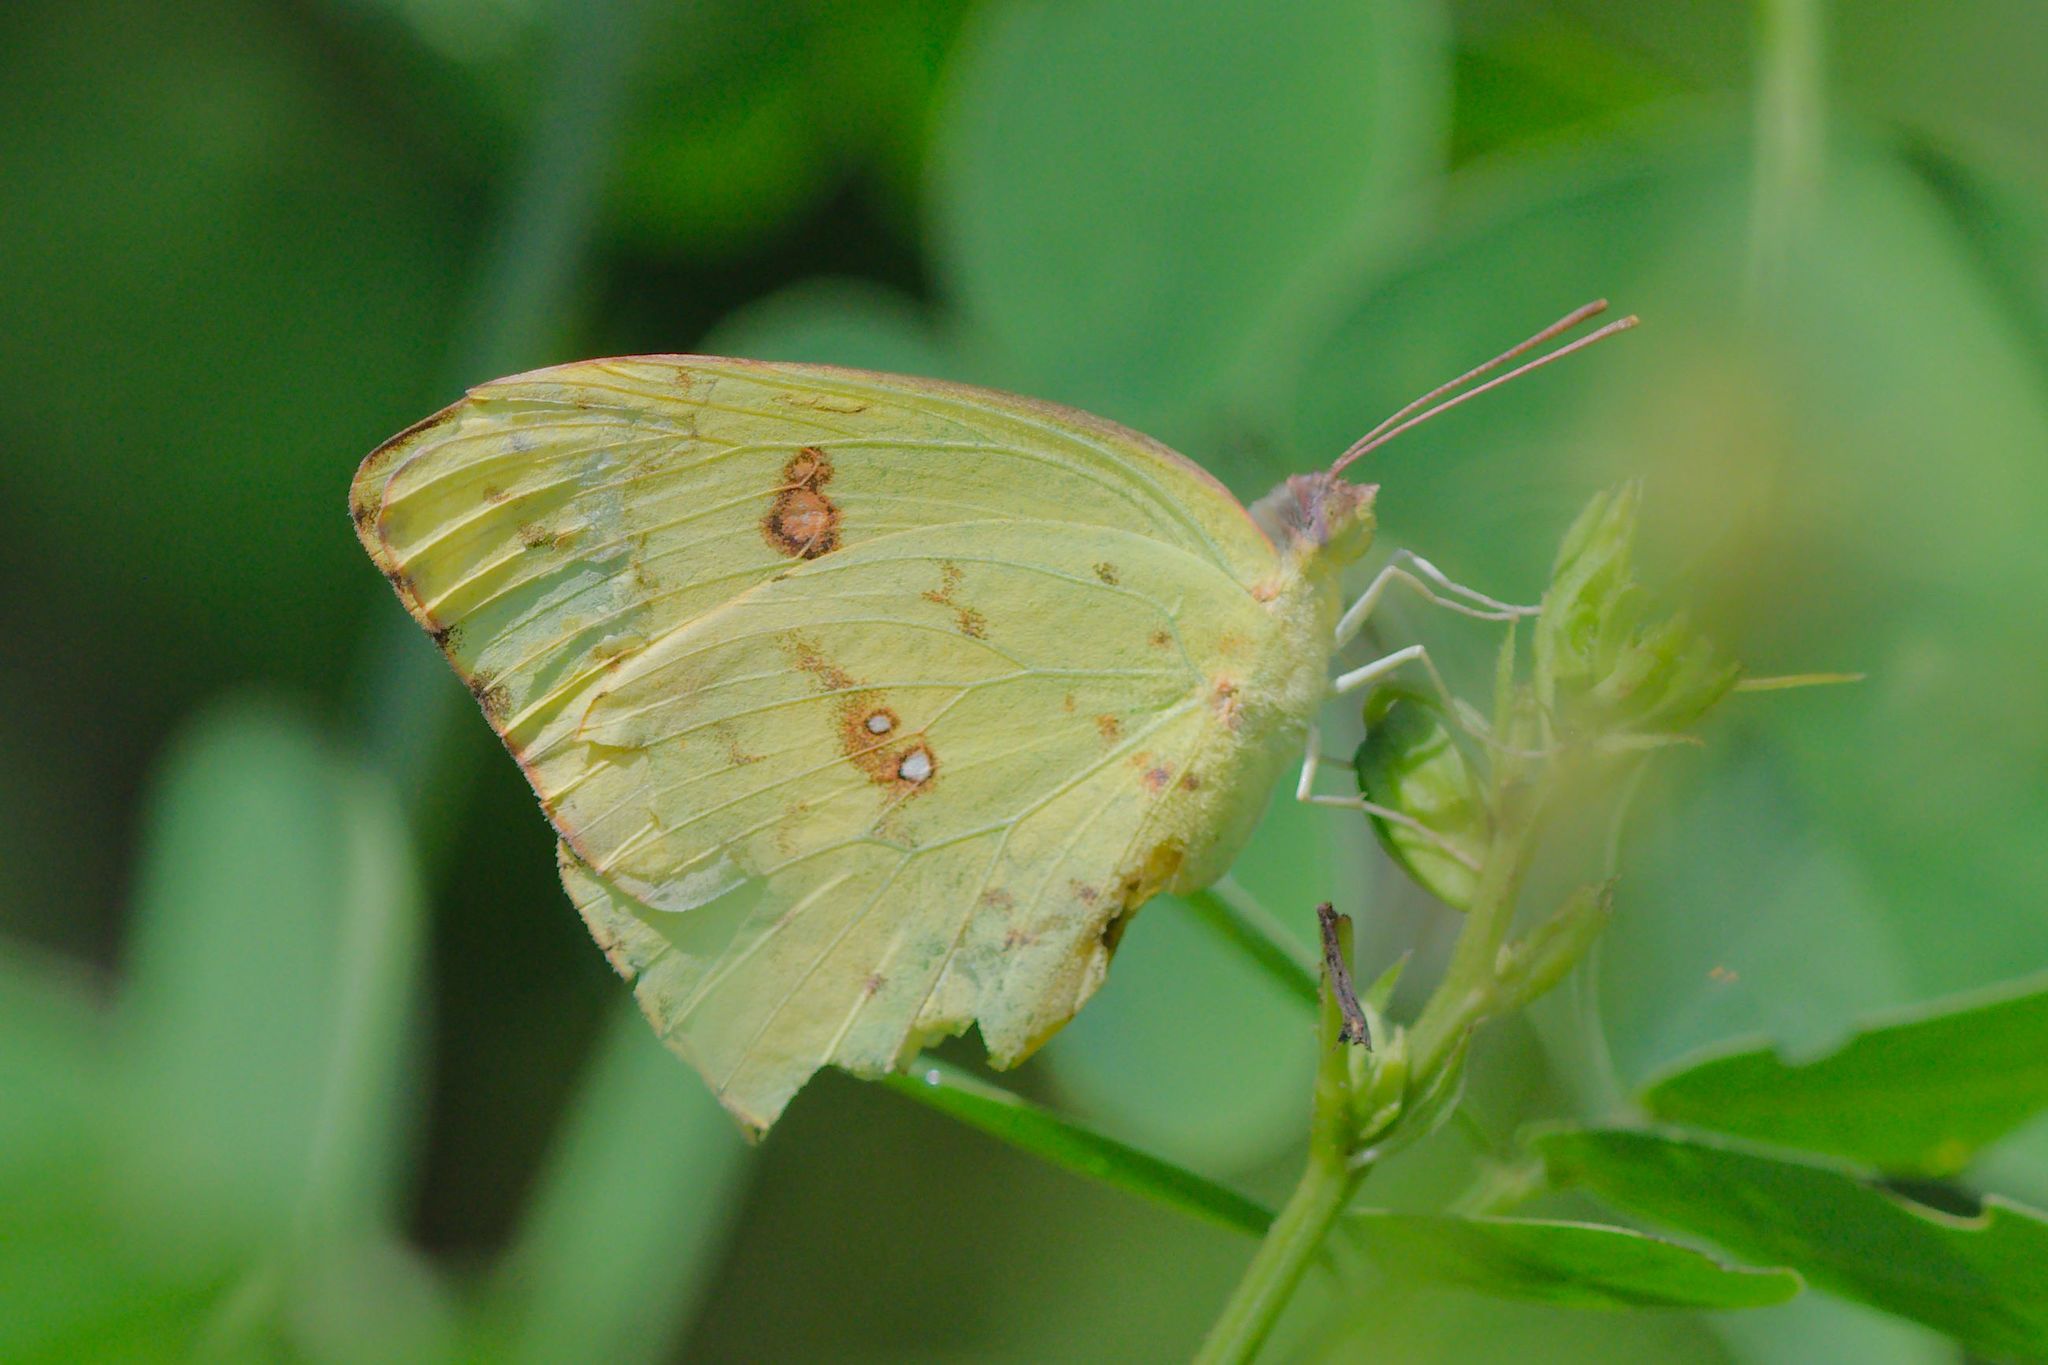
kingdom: Animalia
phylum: Arthropoda
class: Insecta
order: Lepidoptera
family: Pieridae
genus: Phoebis
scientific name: Phoebis sennae
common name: Cloudless sulphur
